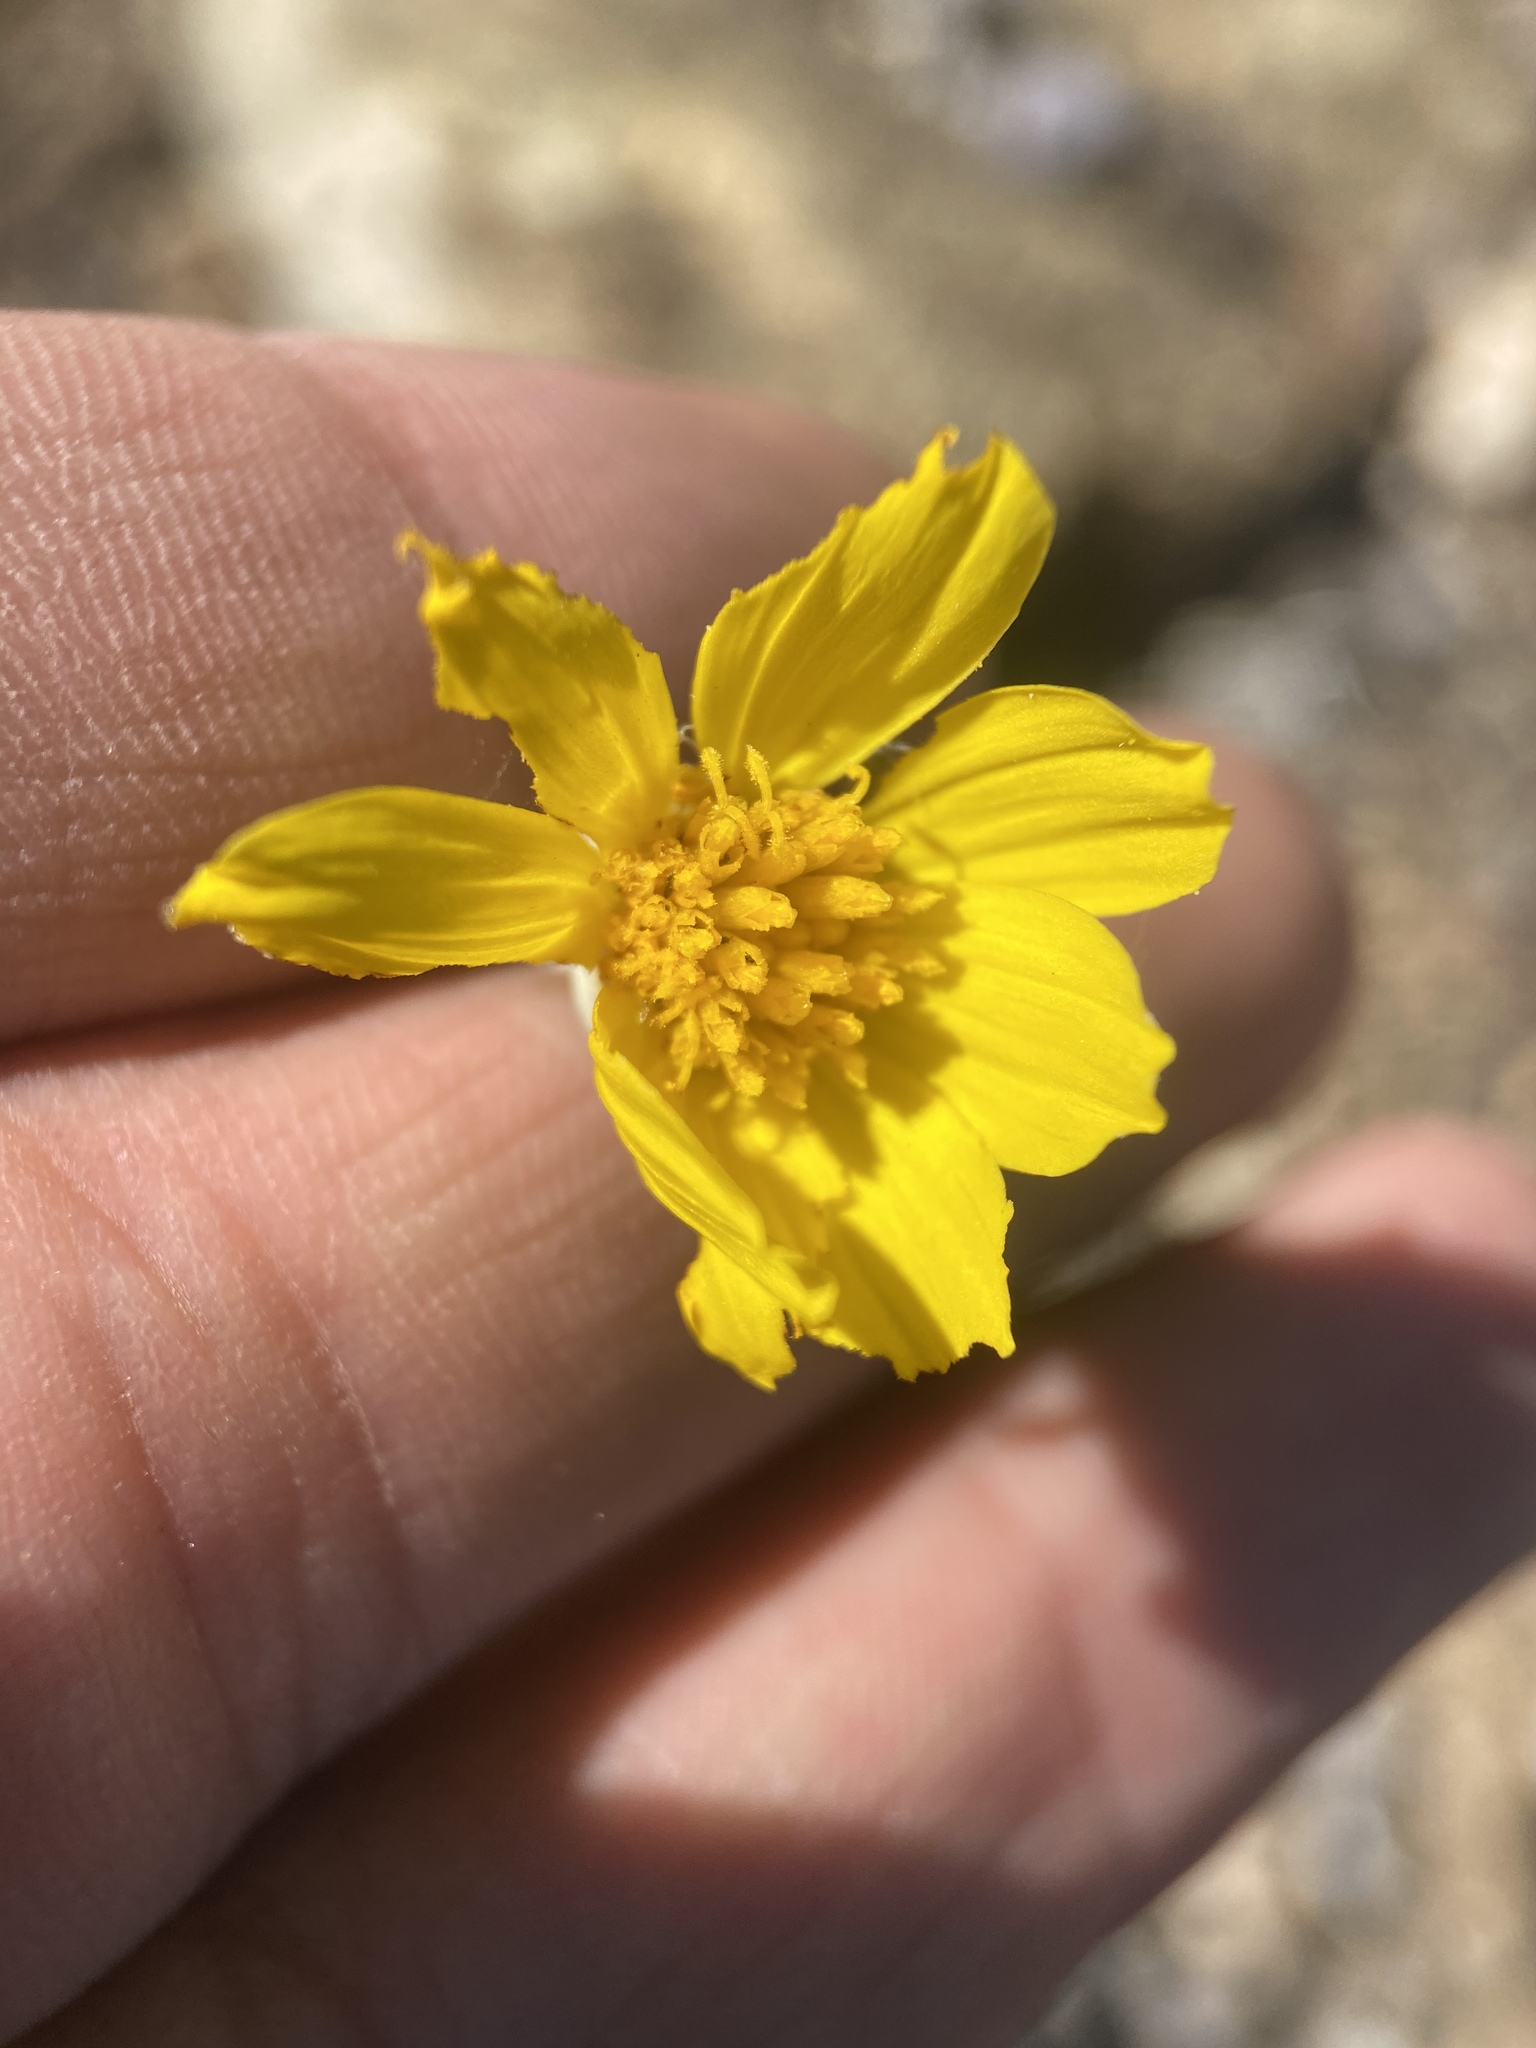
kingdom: Plantae
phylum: Tracheophyta
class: Magnoliopsida
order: Asterales
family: Asteraceae
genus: Thelesperma
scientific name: Thelesperma subnudum
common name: Navajo tea
